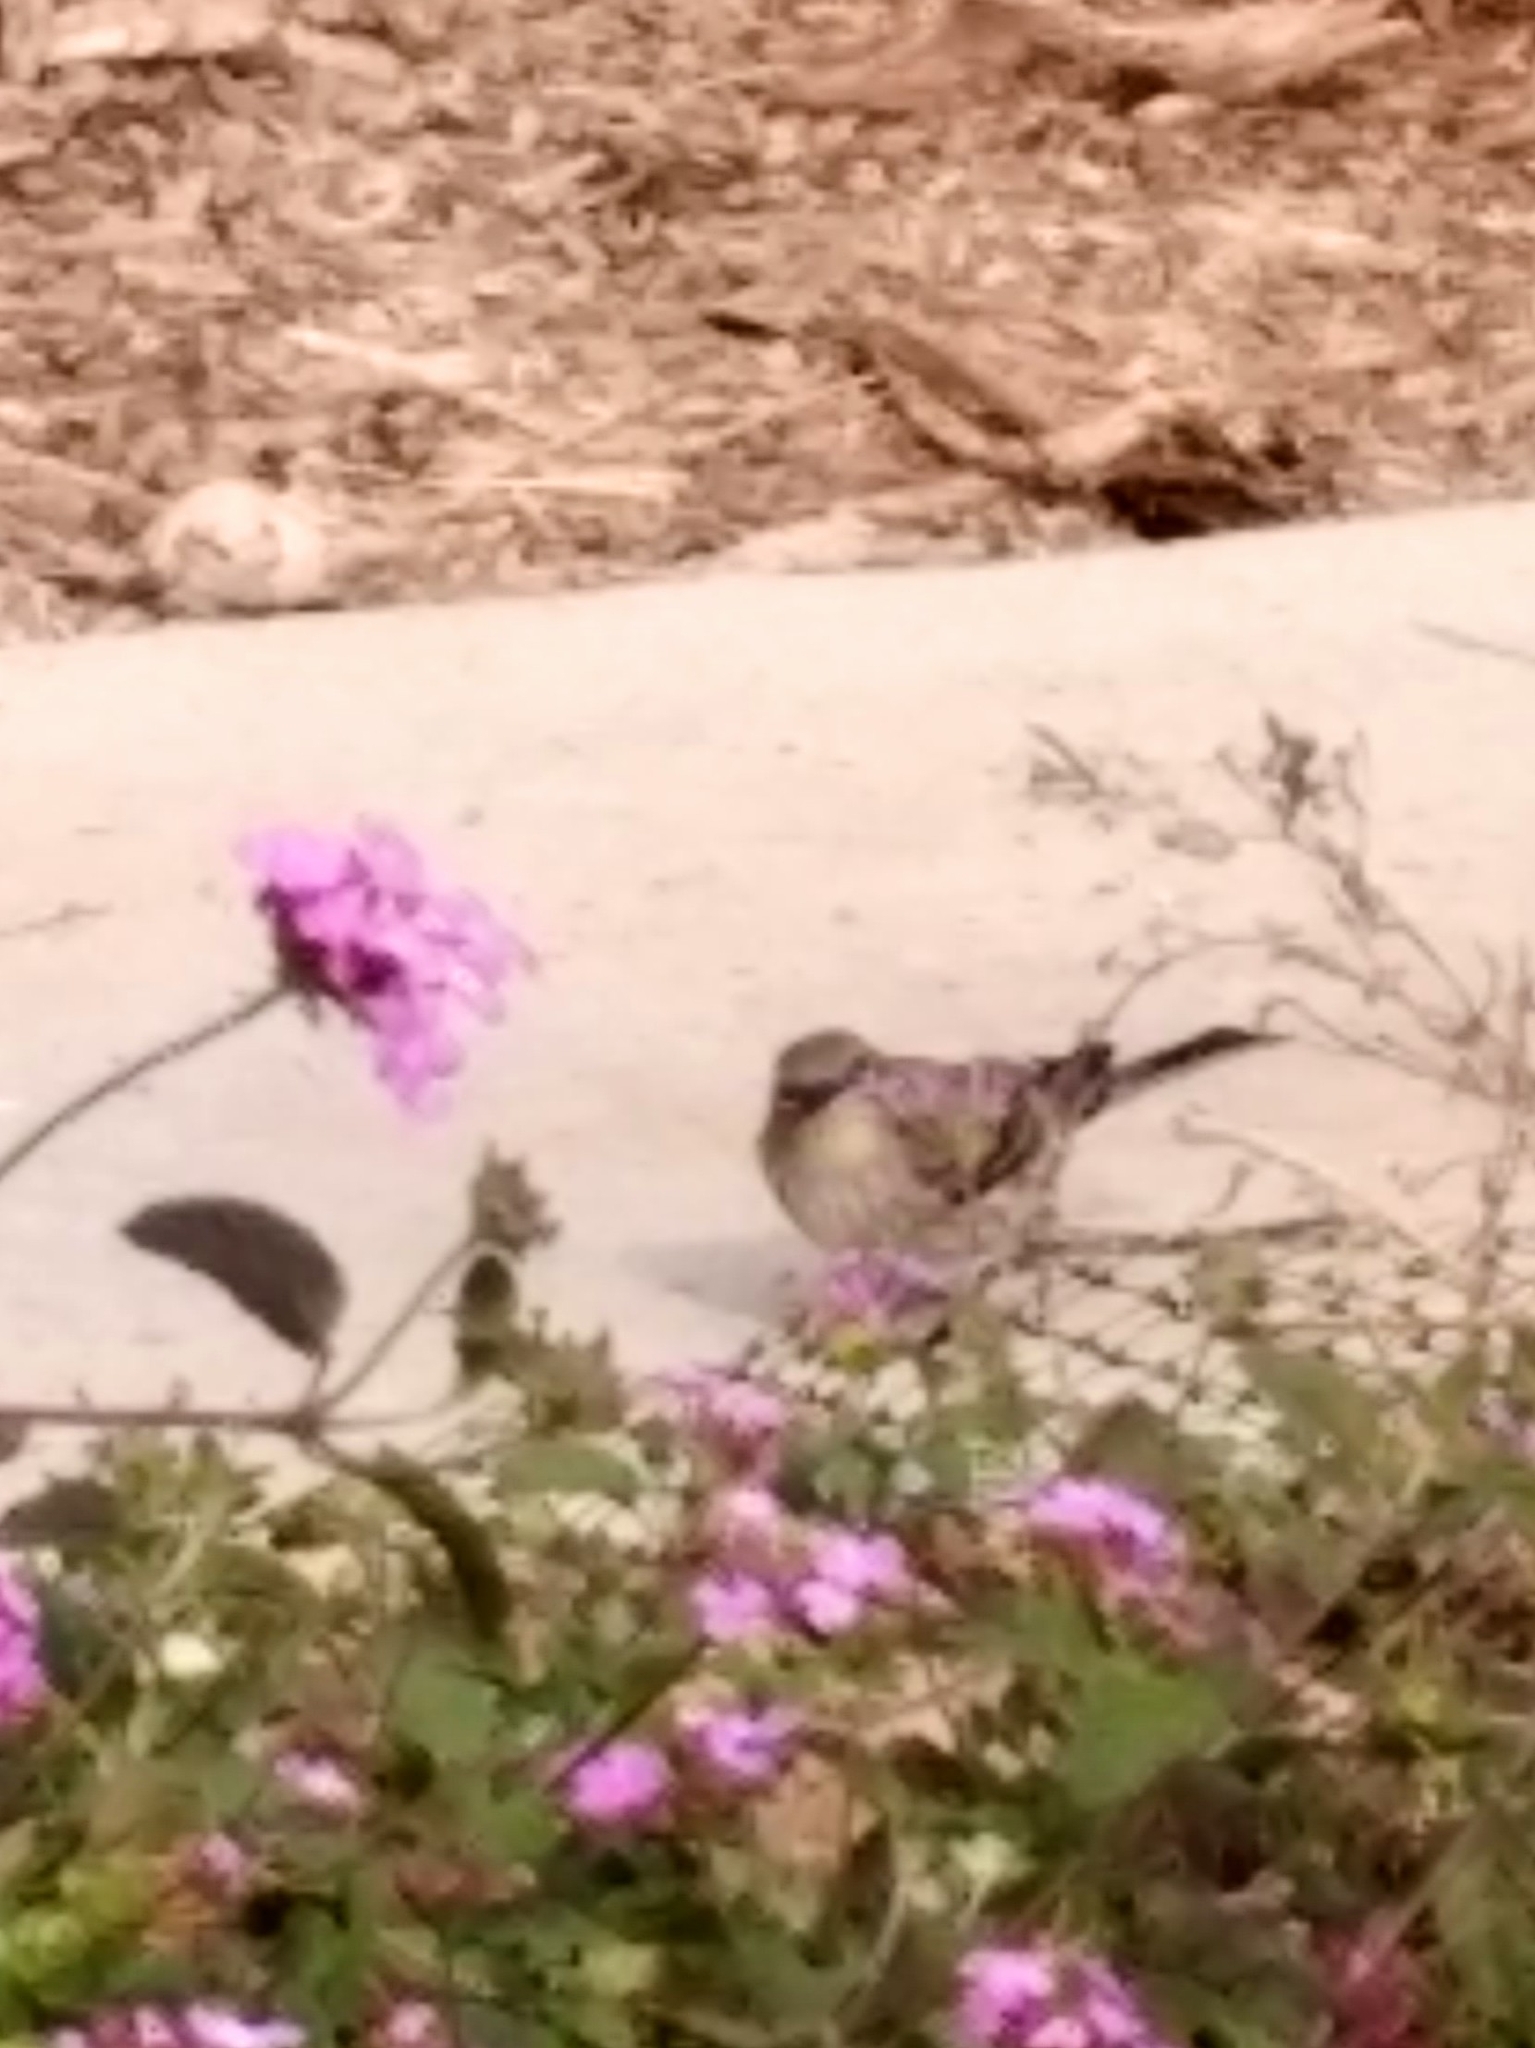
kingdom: Animalia
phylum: Chordata
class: Aves
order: Passeriformes
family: Parulidae
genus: Setophaga
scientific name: Setophaga coronata
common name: Myrtle warbler
